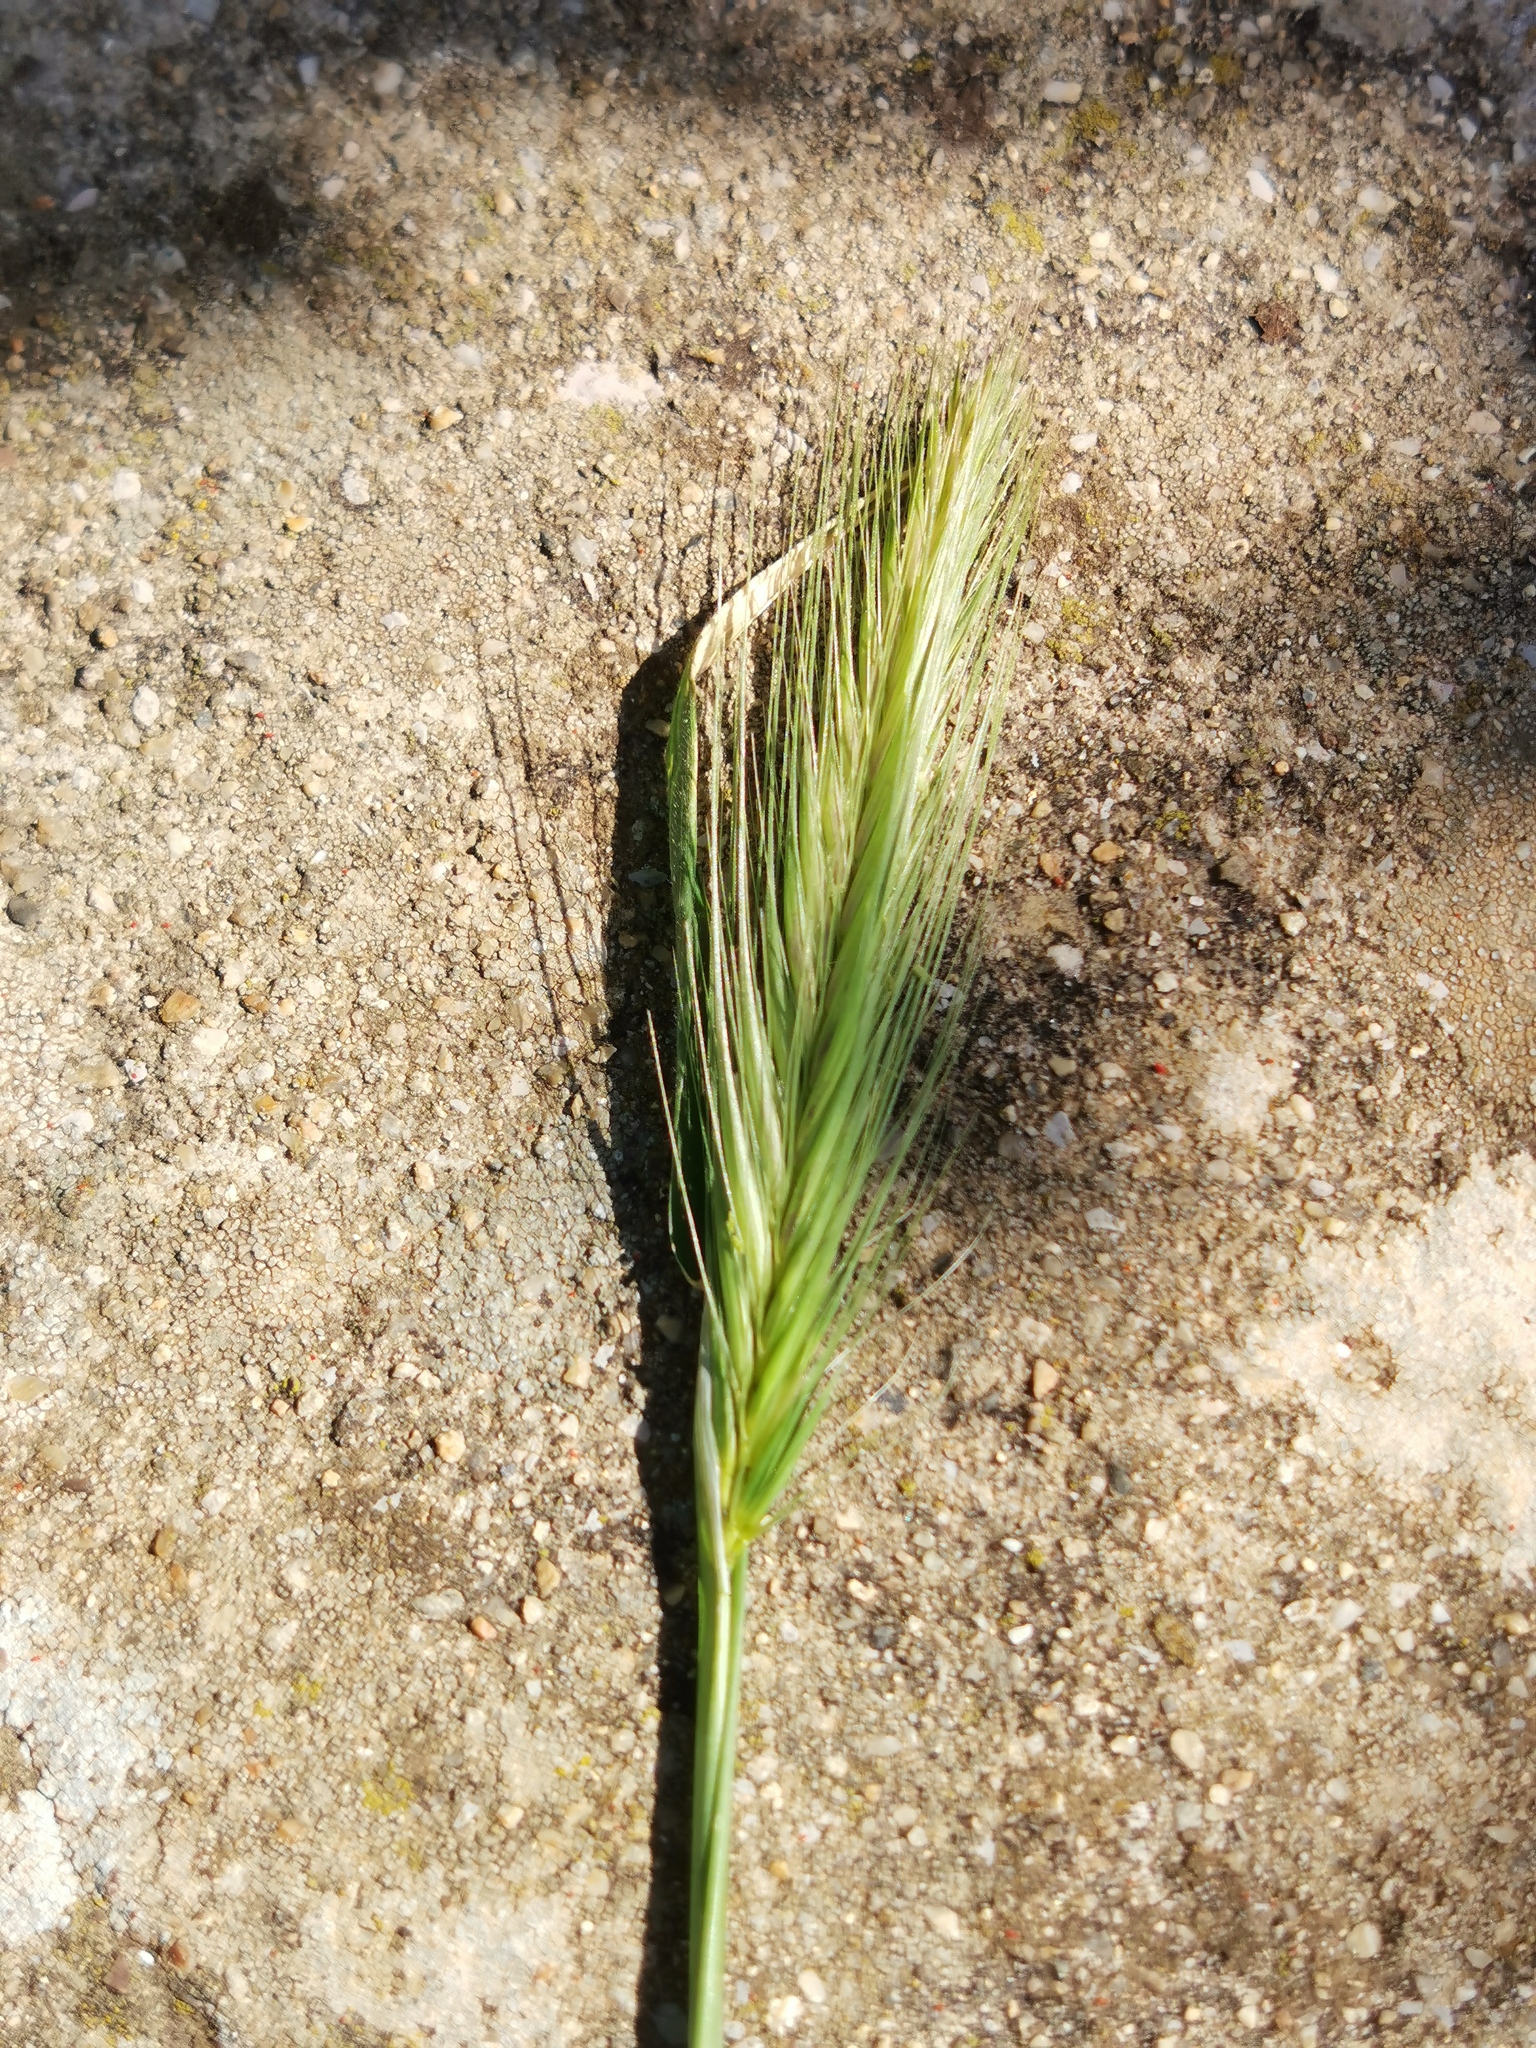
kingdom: Plantae
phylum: Tracheophyta
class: Liliopsida
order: Poales
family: Poaceae
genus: Hordeum
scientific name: Hordeum murinum
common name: Wall barley
